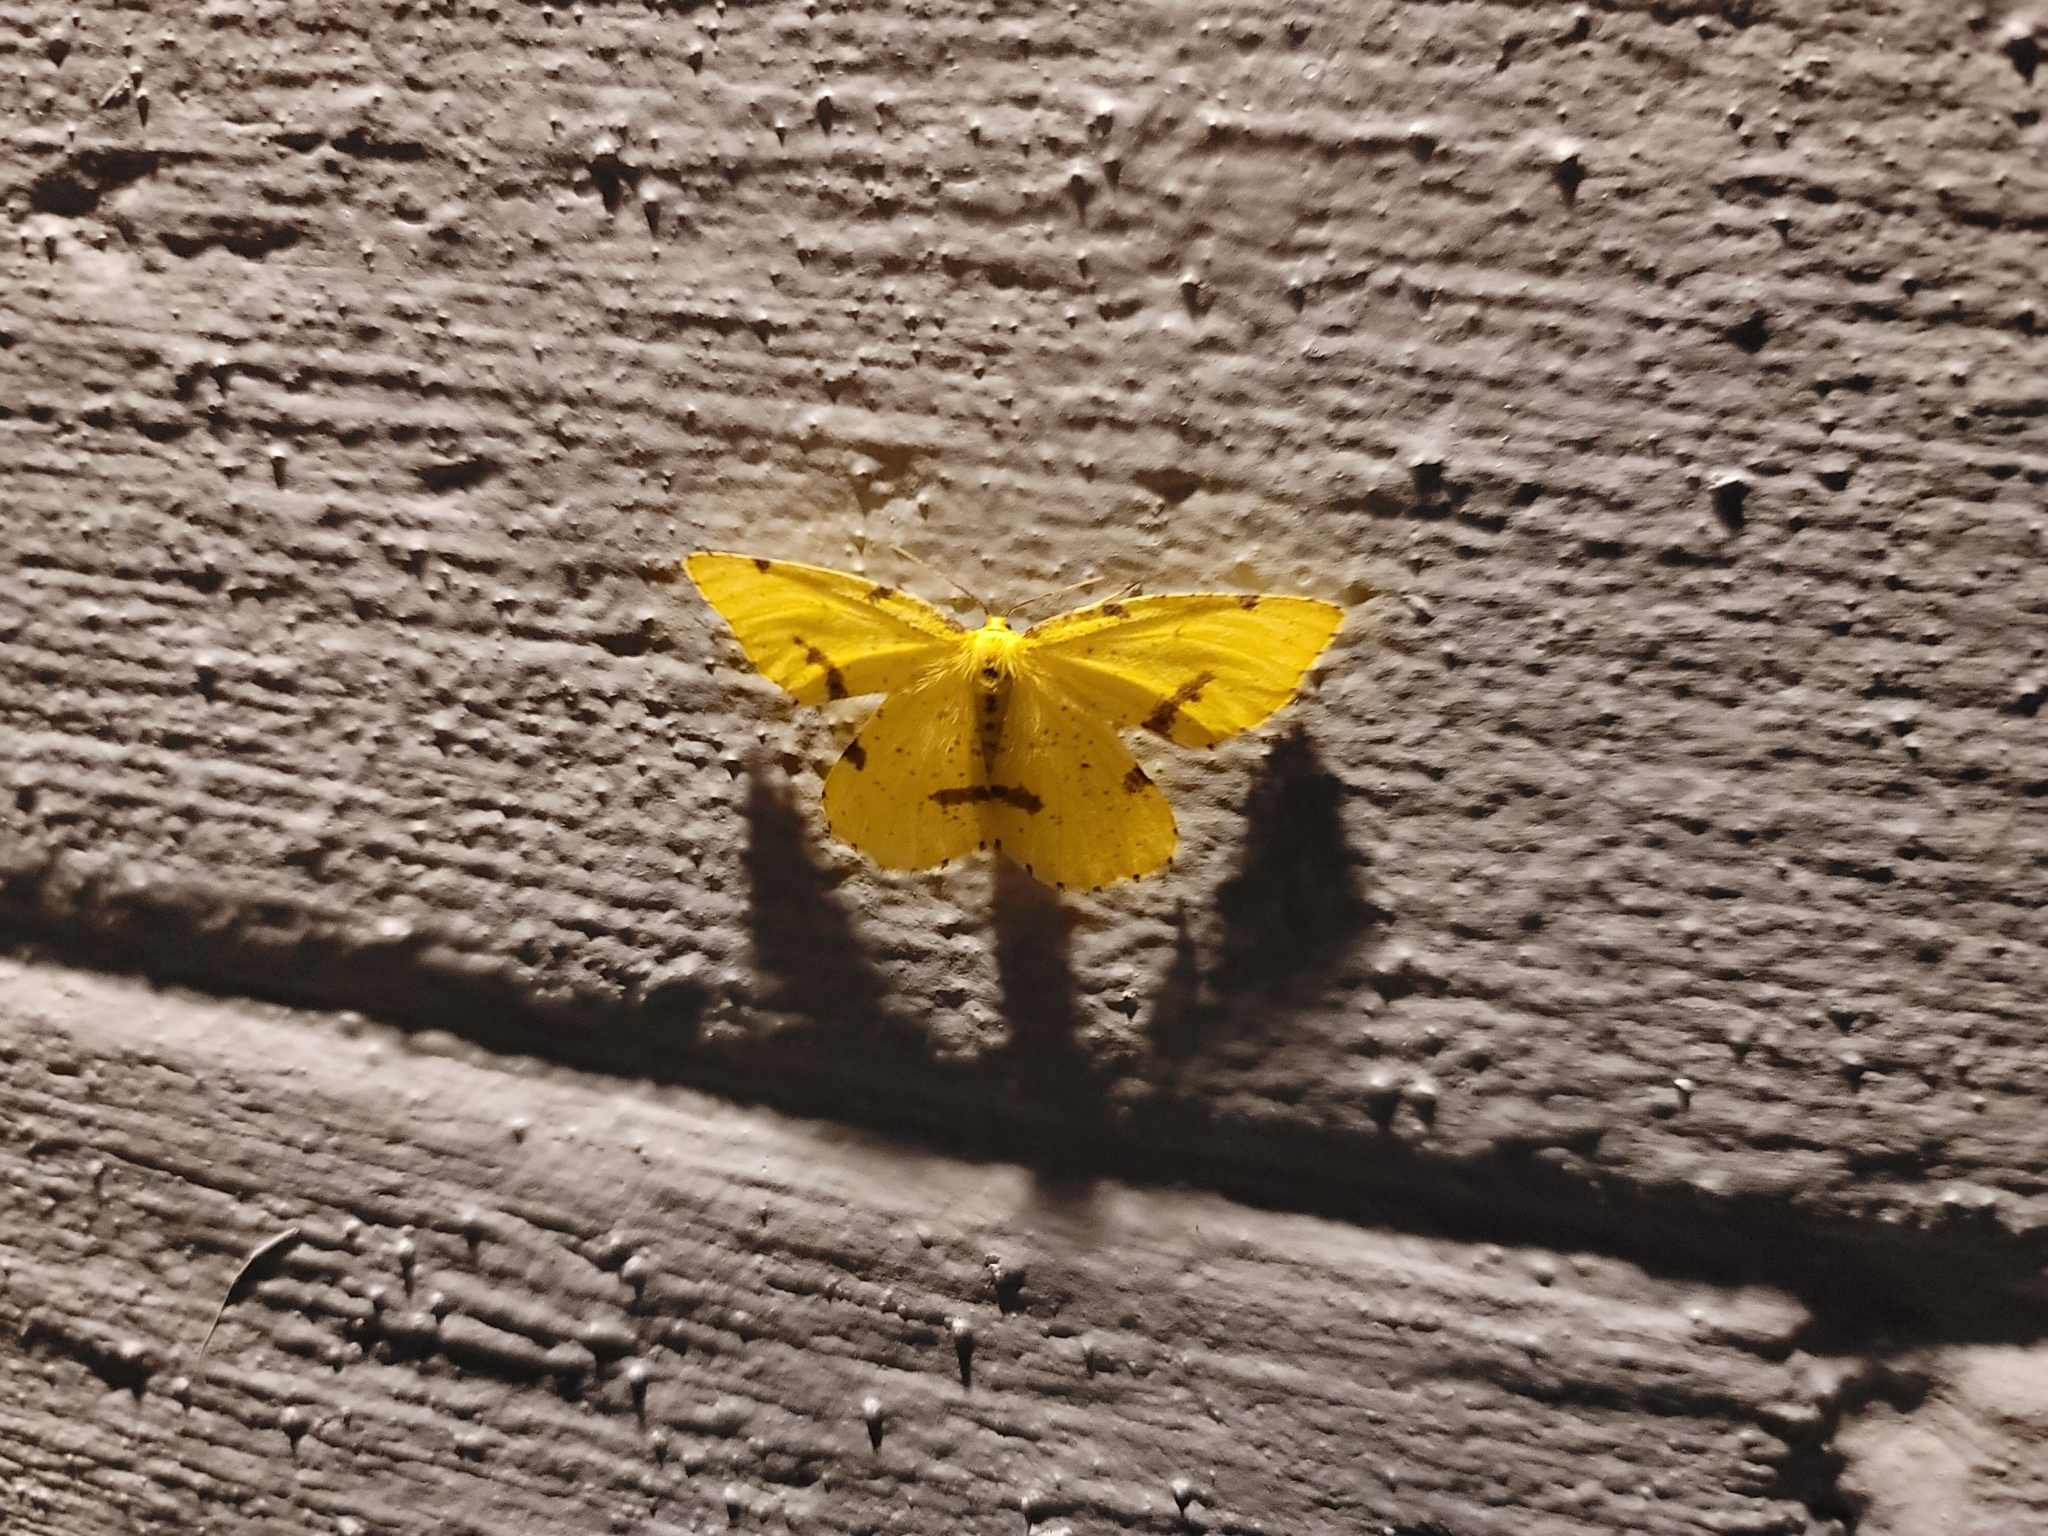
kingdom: Animalia
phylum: Arthropoda
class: Insecta
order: Lepidoptera
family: Geometridae
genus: Xanthotype
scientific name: Xanthotype
